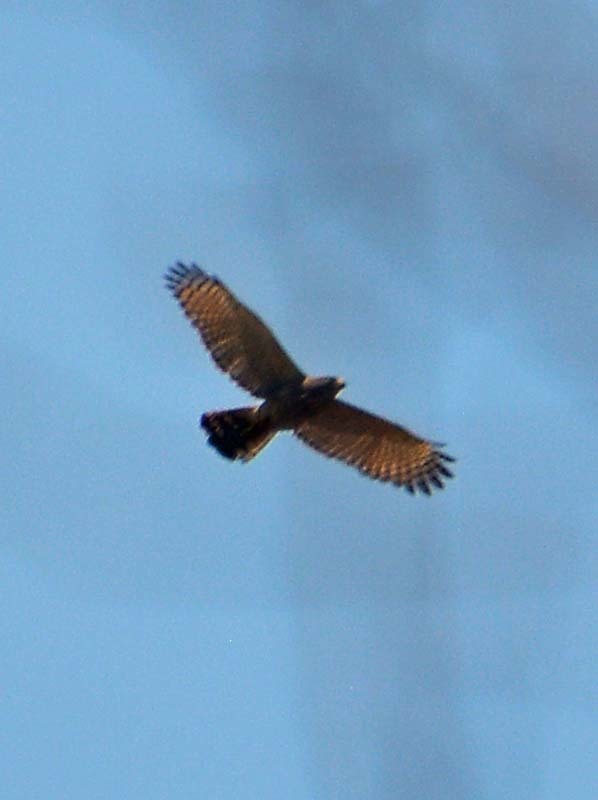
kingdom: Animalia
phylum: Chordata
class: Aves
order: Accipitriformes
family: Accipitridae
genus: Chondrohierax
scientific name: Chondrohierax uncinatus
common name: Hook-billed kite
